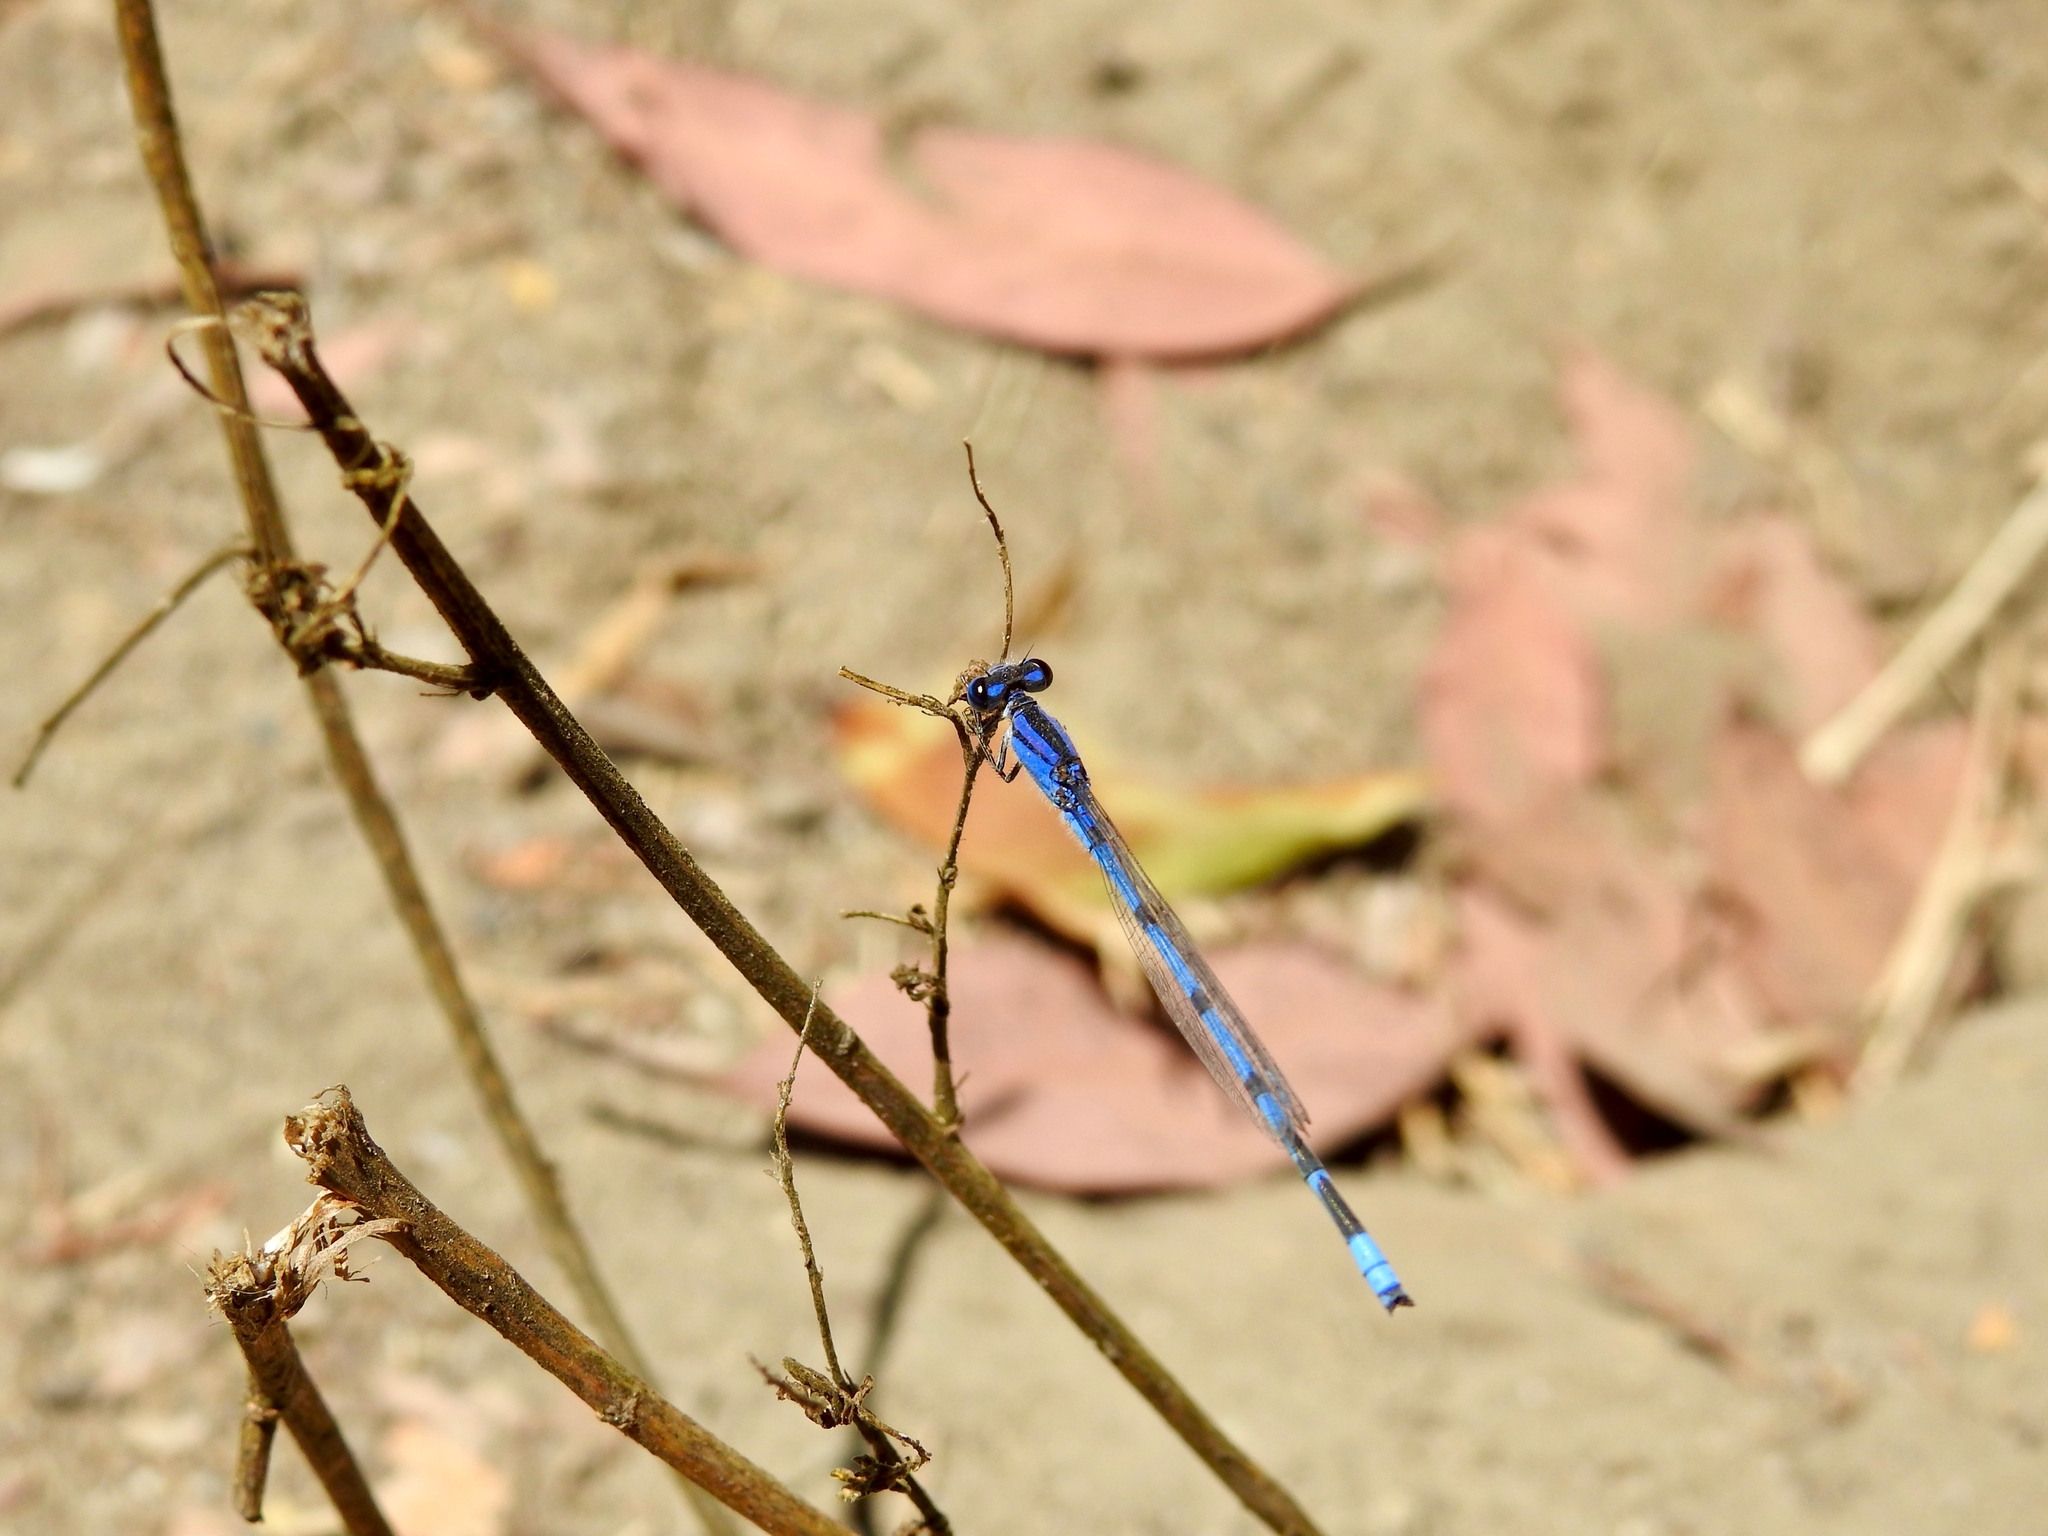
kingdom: Animalia
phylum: Arthropoda
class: Insecta
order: Odonata
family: Coenagrionidae
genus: Enallagma
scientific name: Enallagma civile
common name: Damselfly
